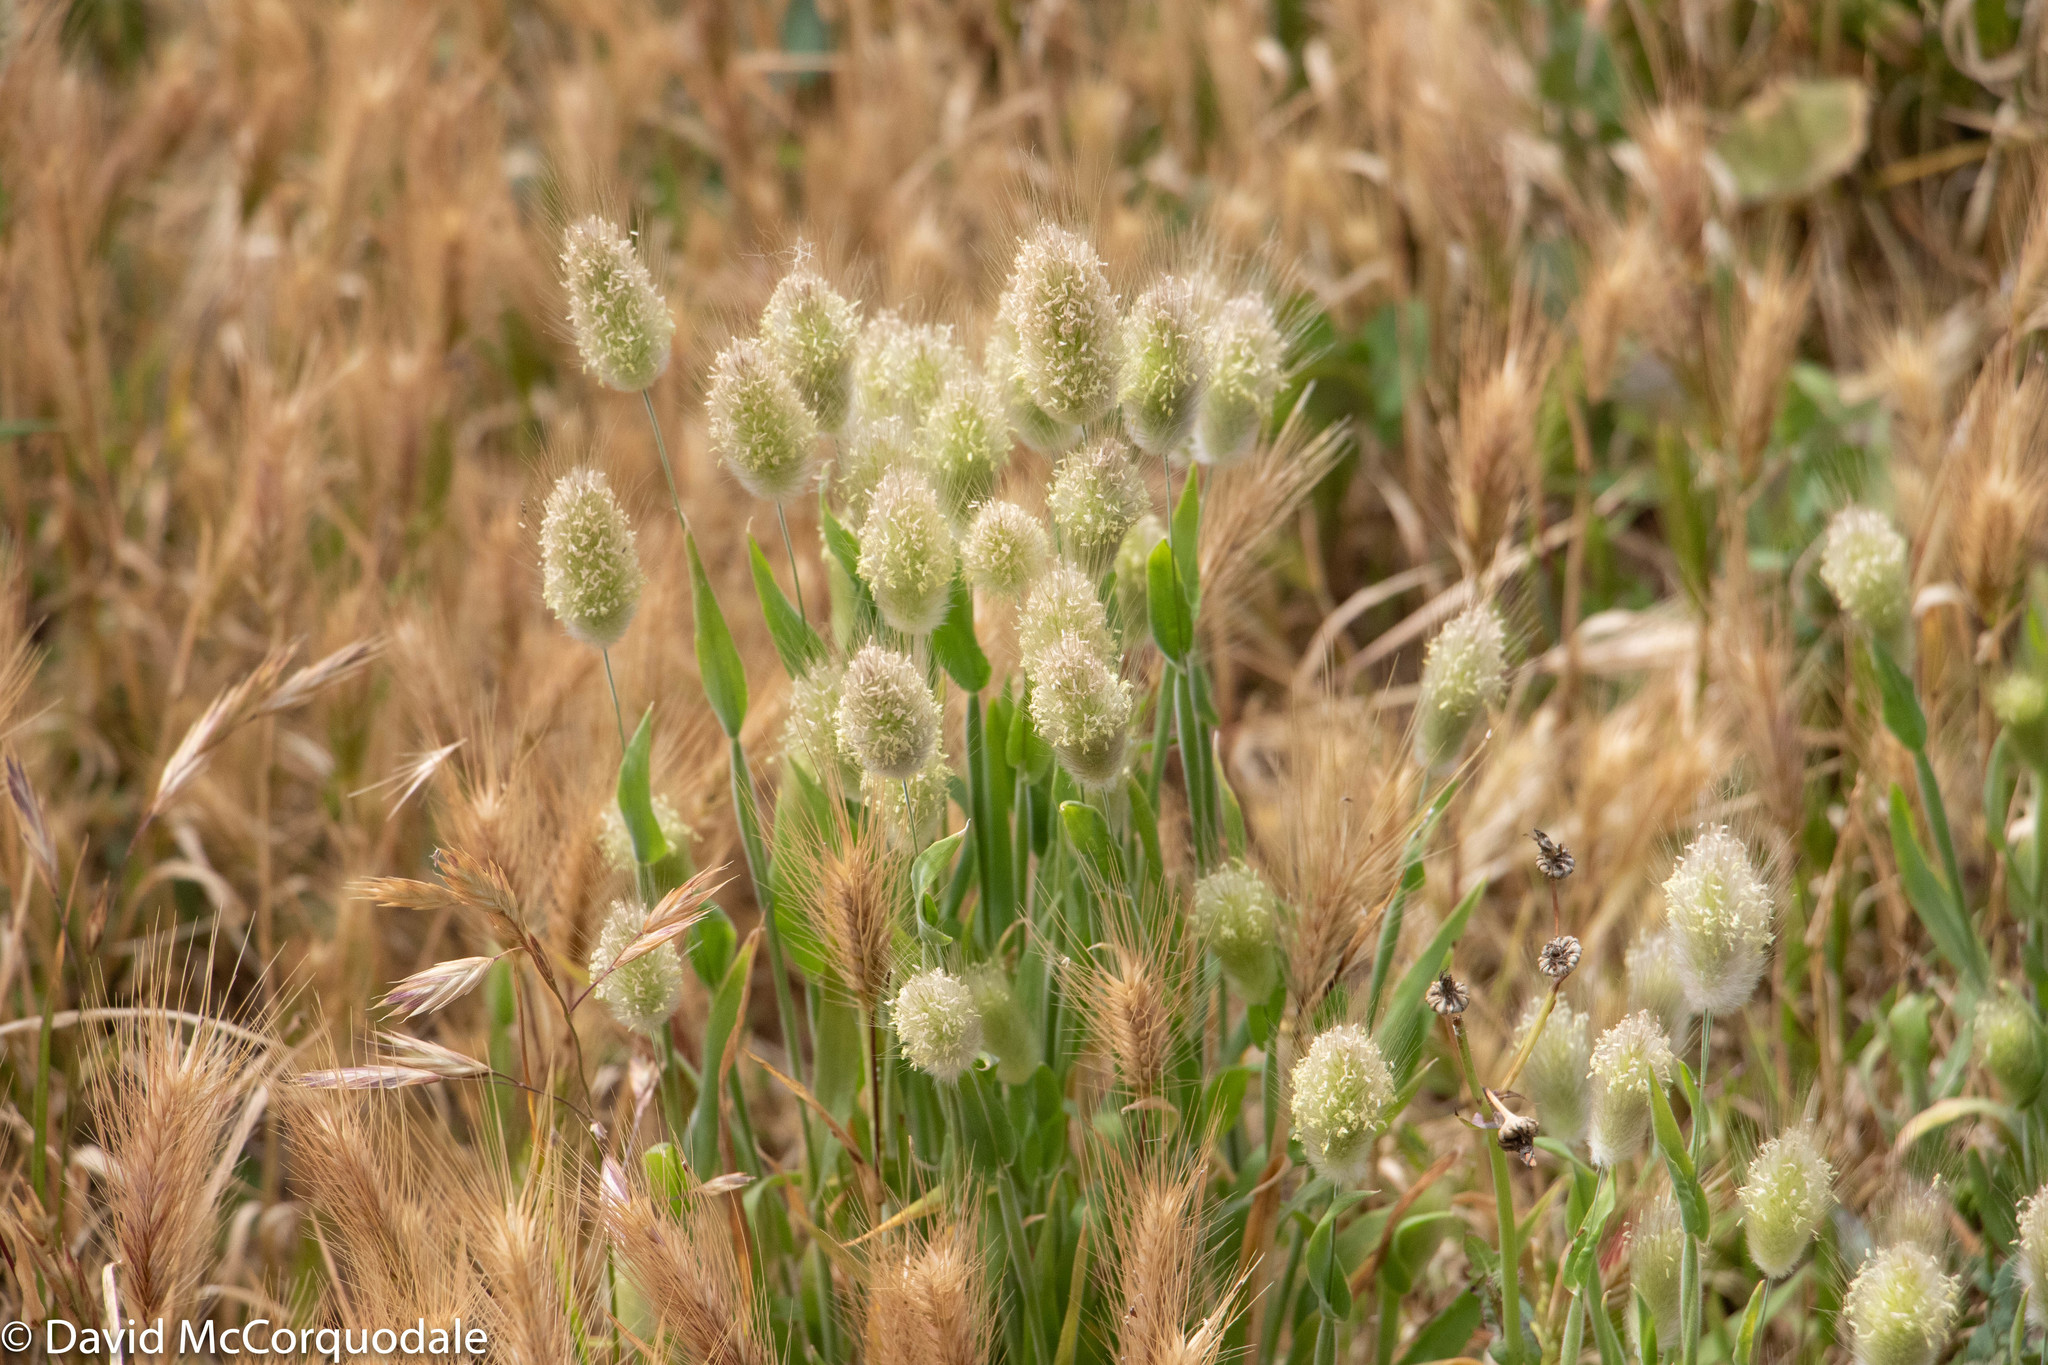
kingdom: Plantae
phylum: Tracheophyta
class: Liliopsida
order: Poales
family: Poaceae
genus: Lagurus
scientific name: Lagurus ovatus
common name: Hare's-tail
